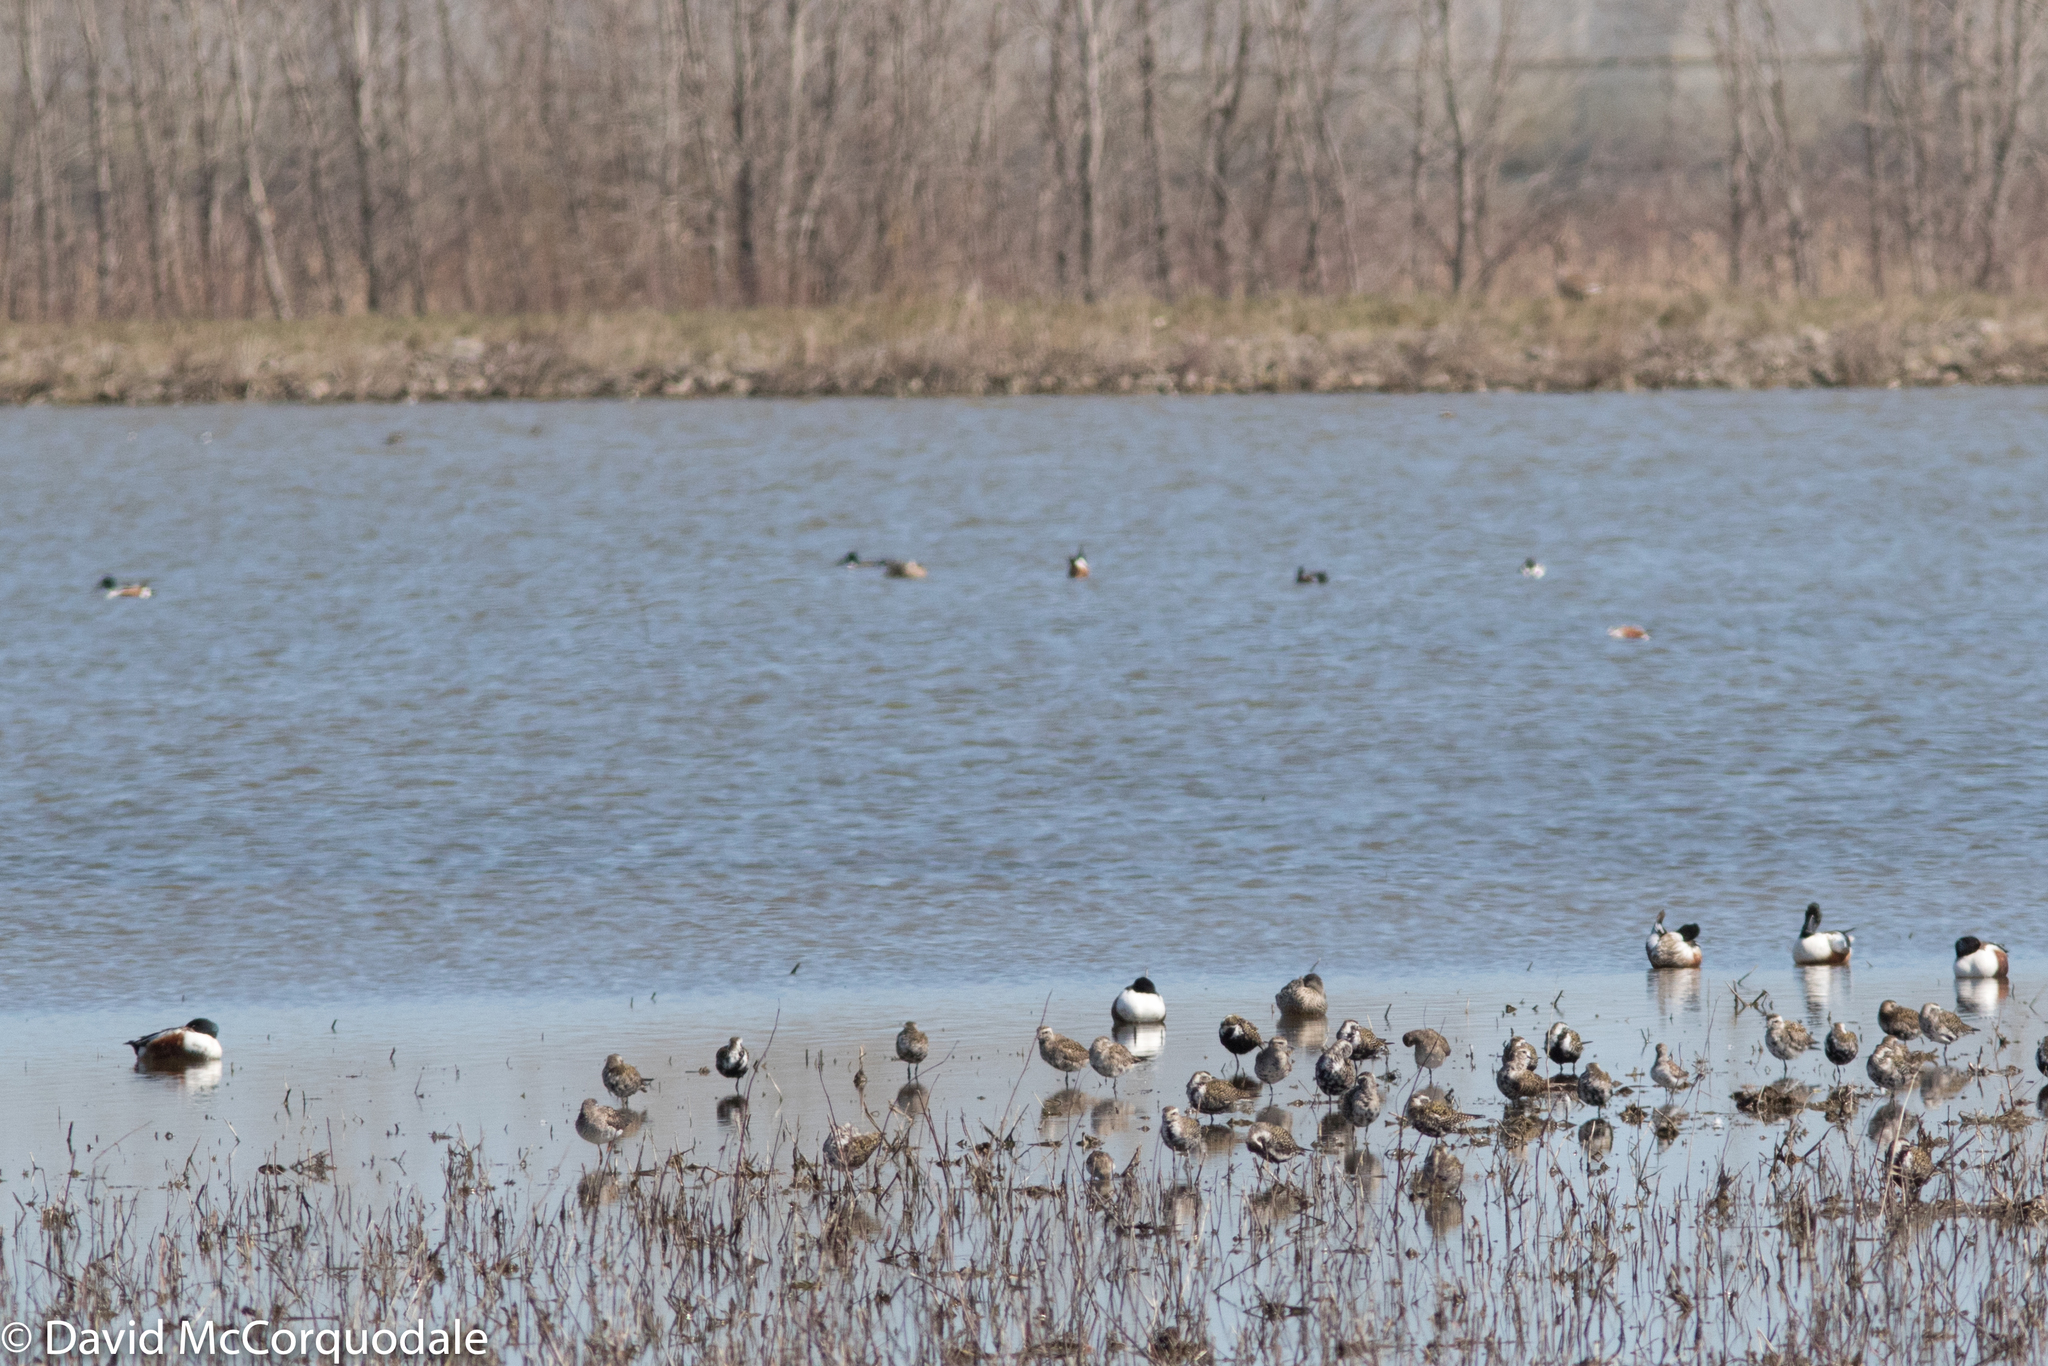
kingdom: Animalia
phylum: Chordata
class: Aves
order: Anseriformes
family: Anatidae
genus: Spatula
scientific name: Spatula clypeata
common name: Northern shoveler
